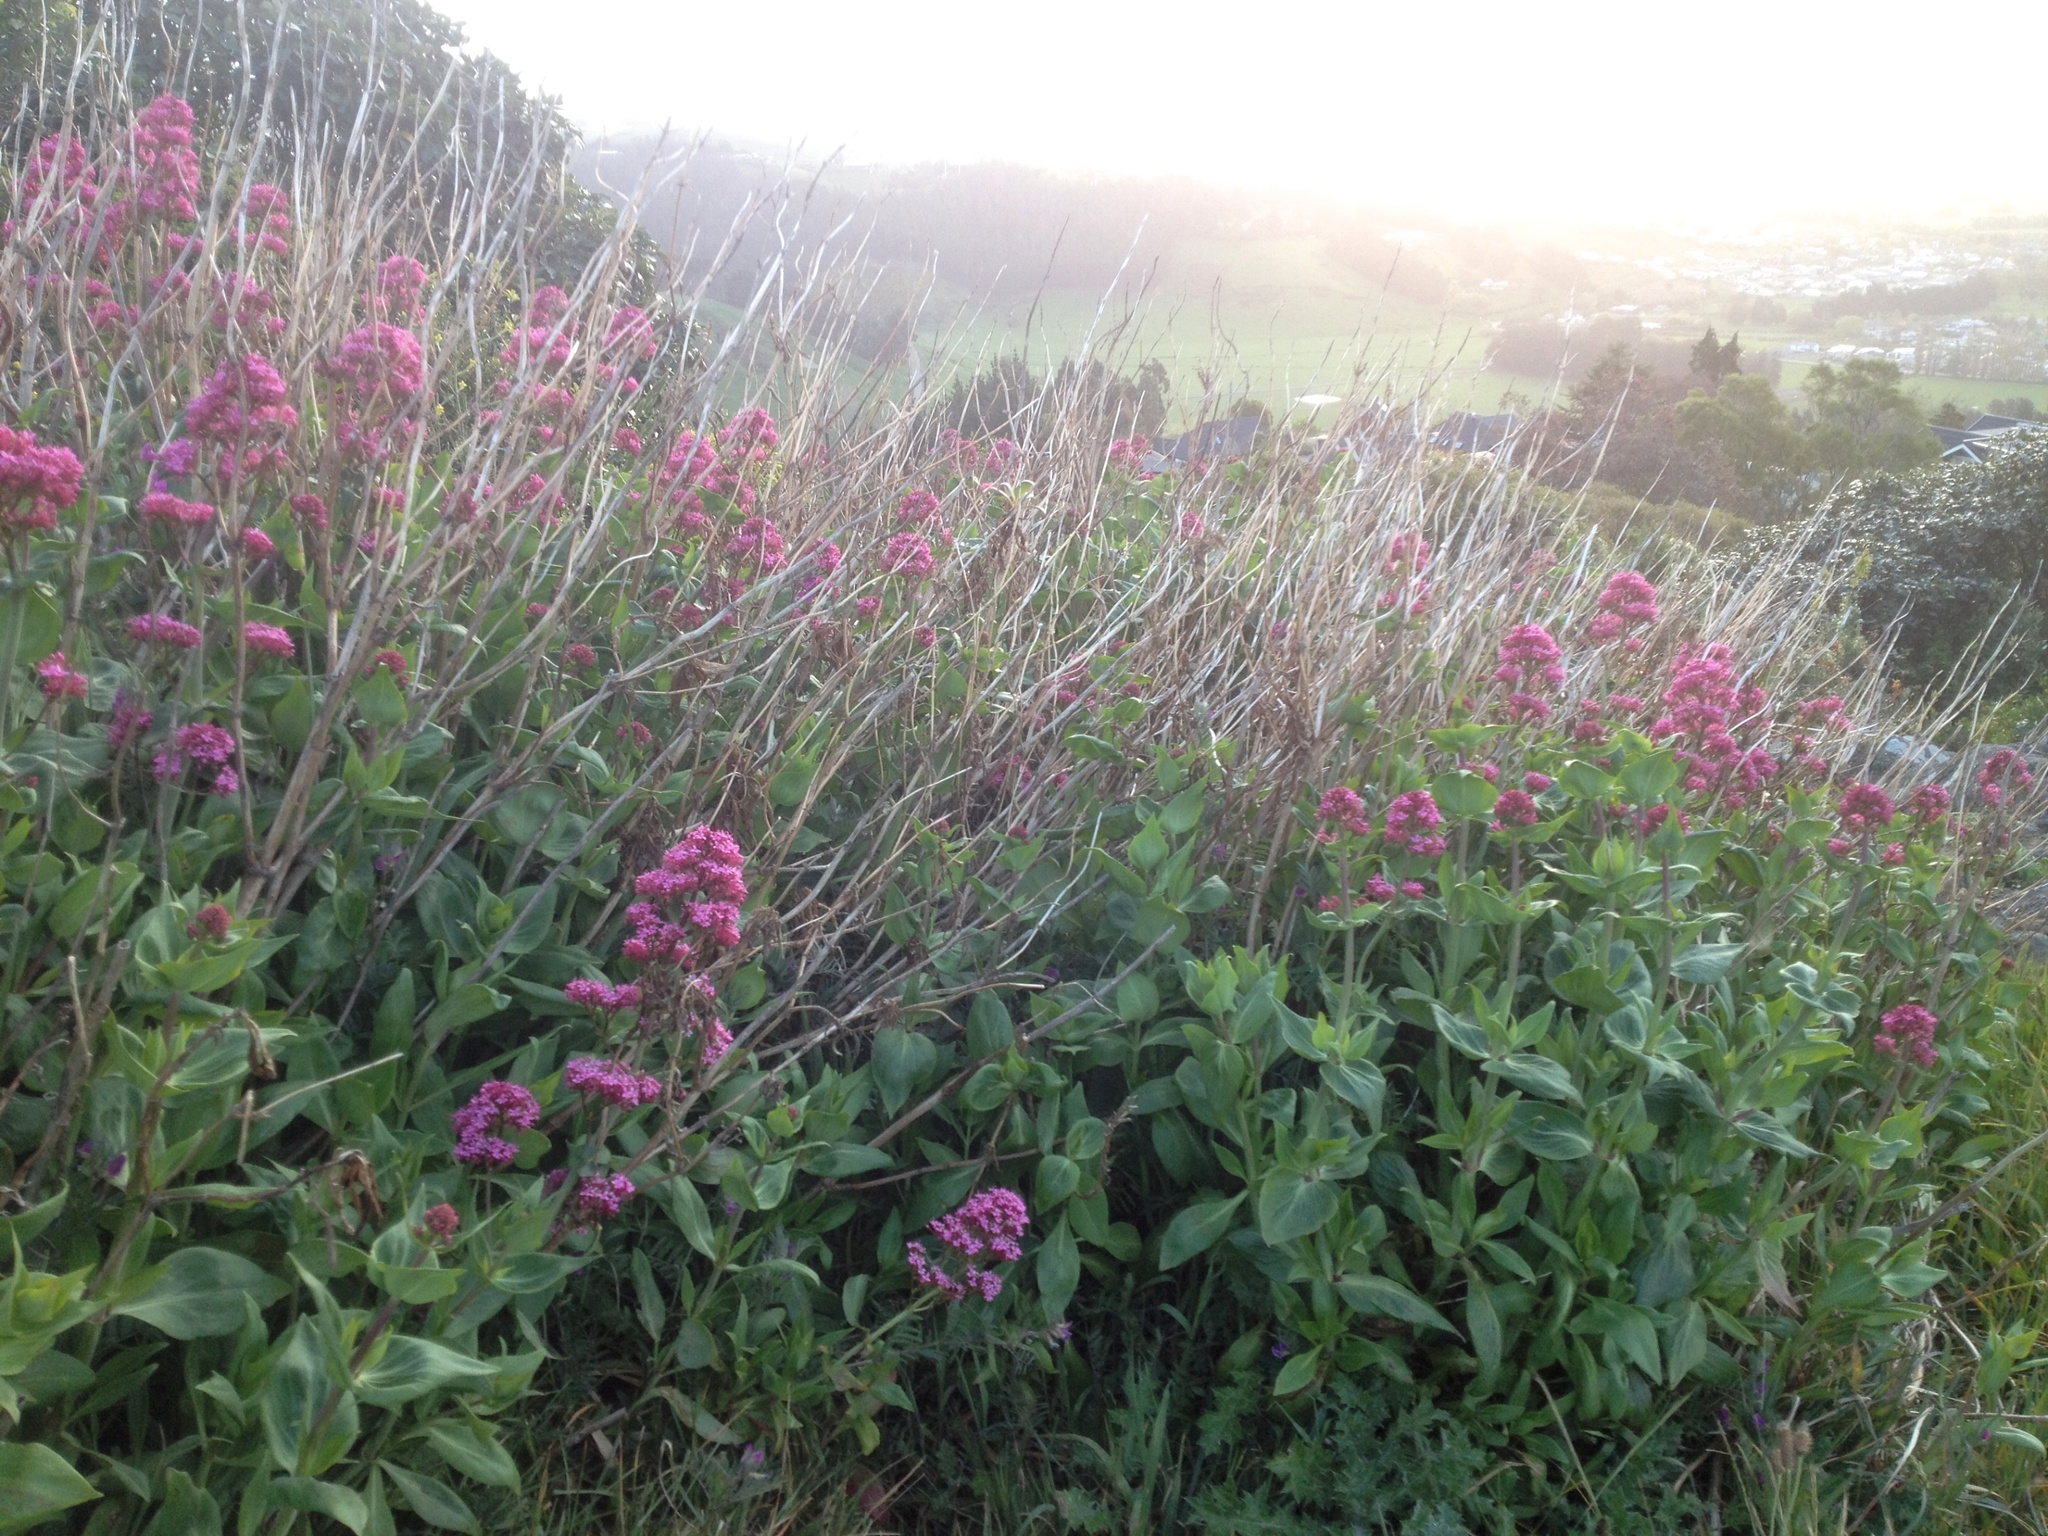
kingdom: Plantae
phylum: Tracheophyta
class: Magnoliopsida
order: Dipsacales
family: Caprifoliaceae
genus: Centranthus
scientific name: Centranthus ruber
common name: Red valerian
